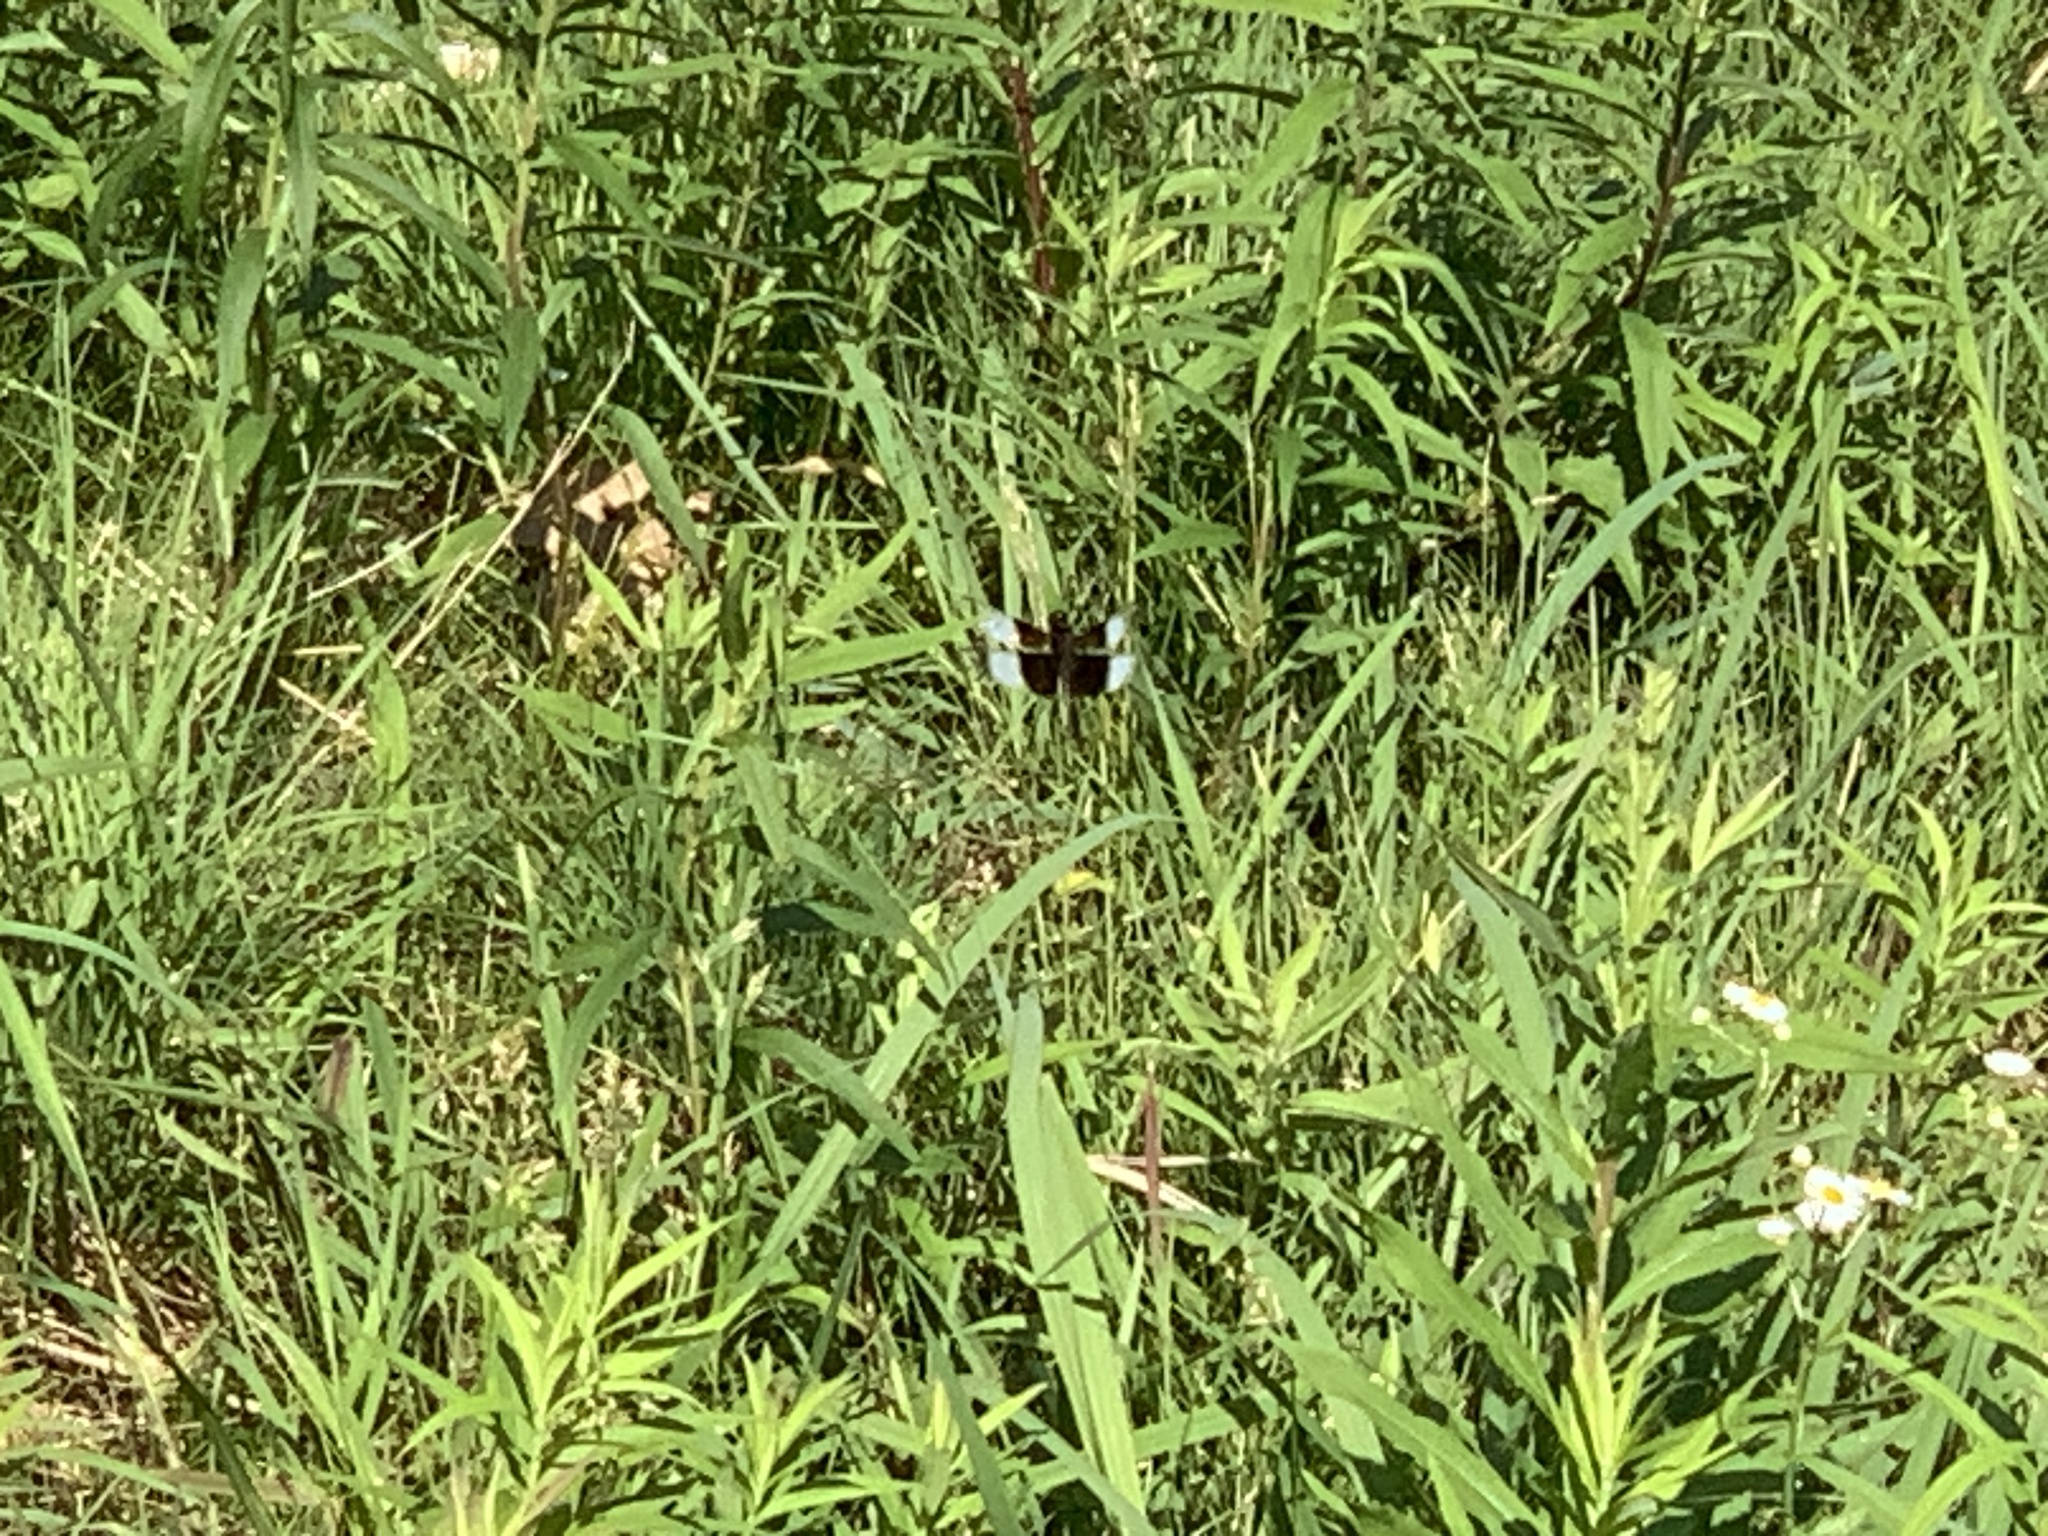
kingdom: Animalia
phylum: Arthropoda
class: Insecta
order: Odonata
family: Libellulidae
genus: Libellula
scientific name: Libellula luctuosa
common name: Widow skimmer
